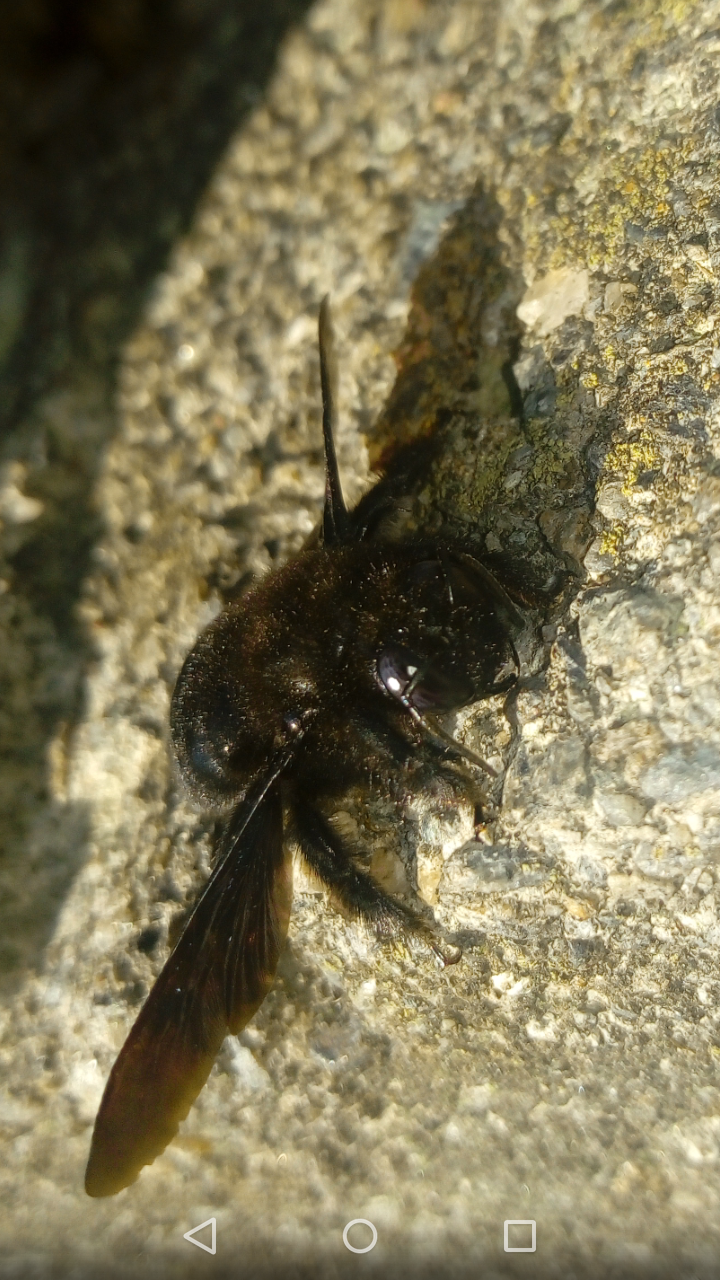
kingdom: Animalia
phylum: Arthropoda
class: Insecta
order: Hymenoptera
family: Apidae
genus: Xylocopa
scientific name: Xylocopa violacea
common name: Violet carpenter bee
